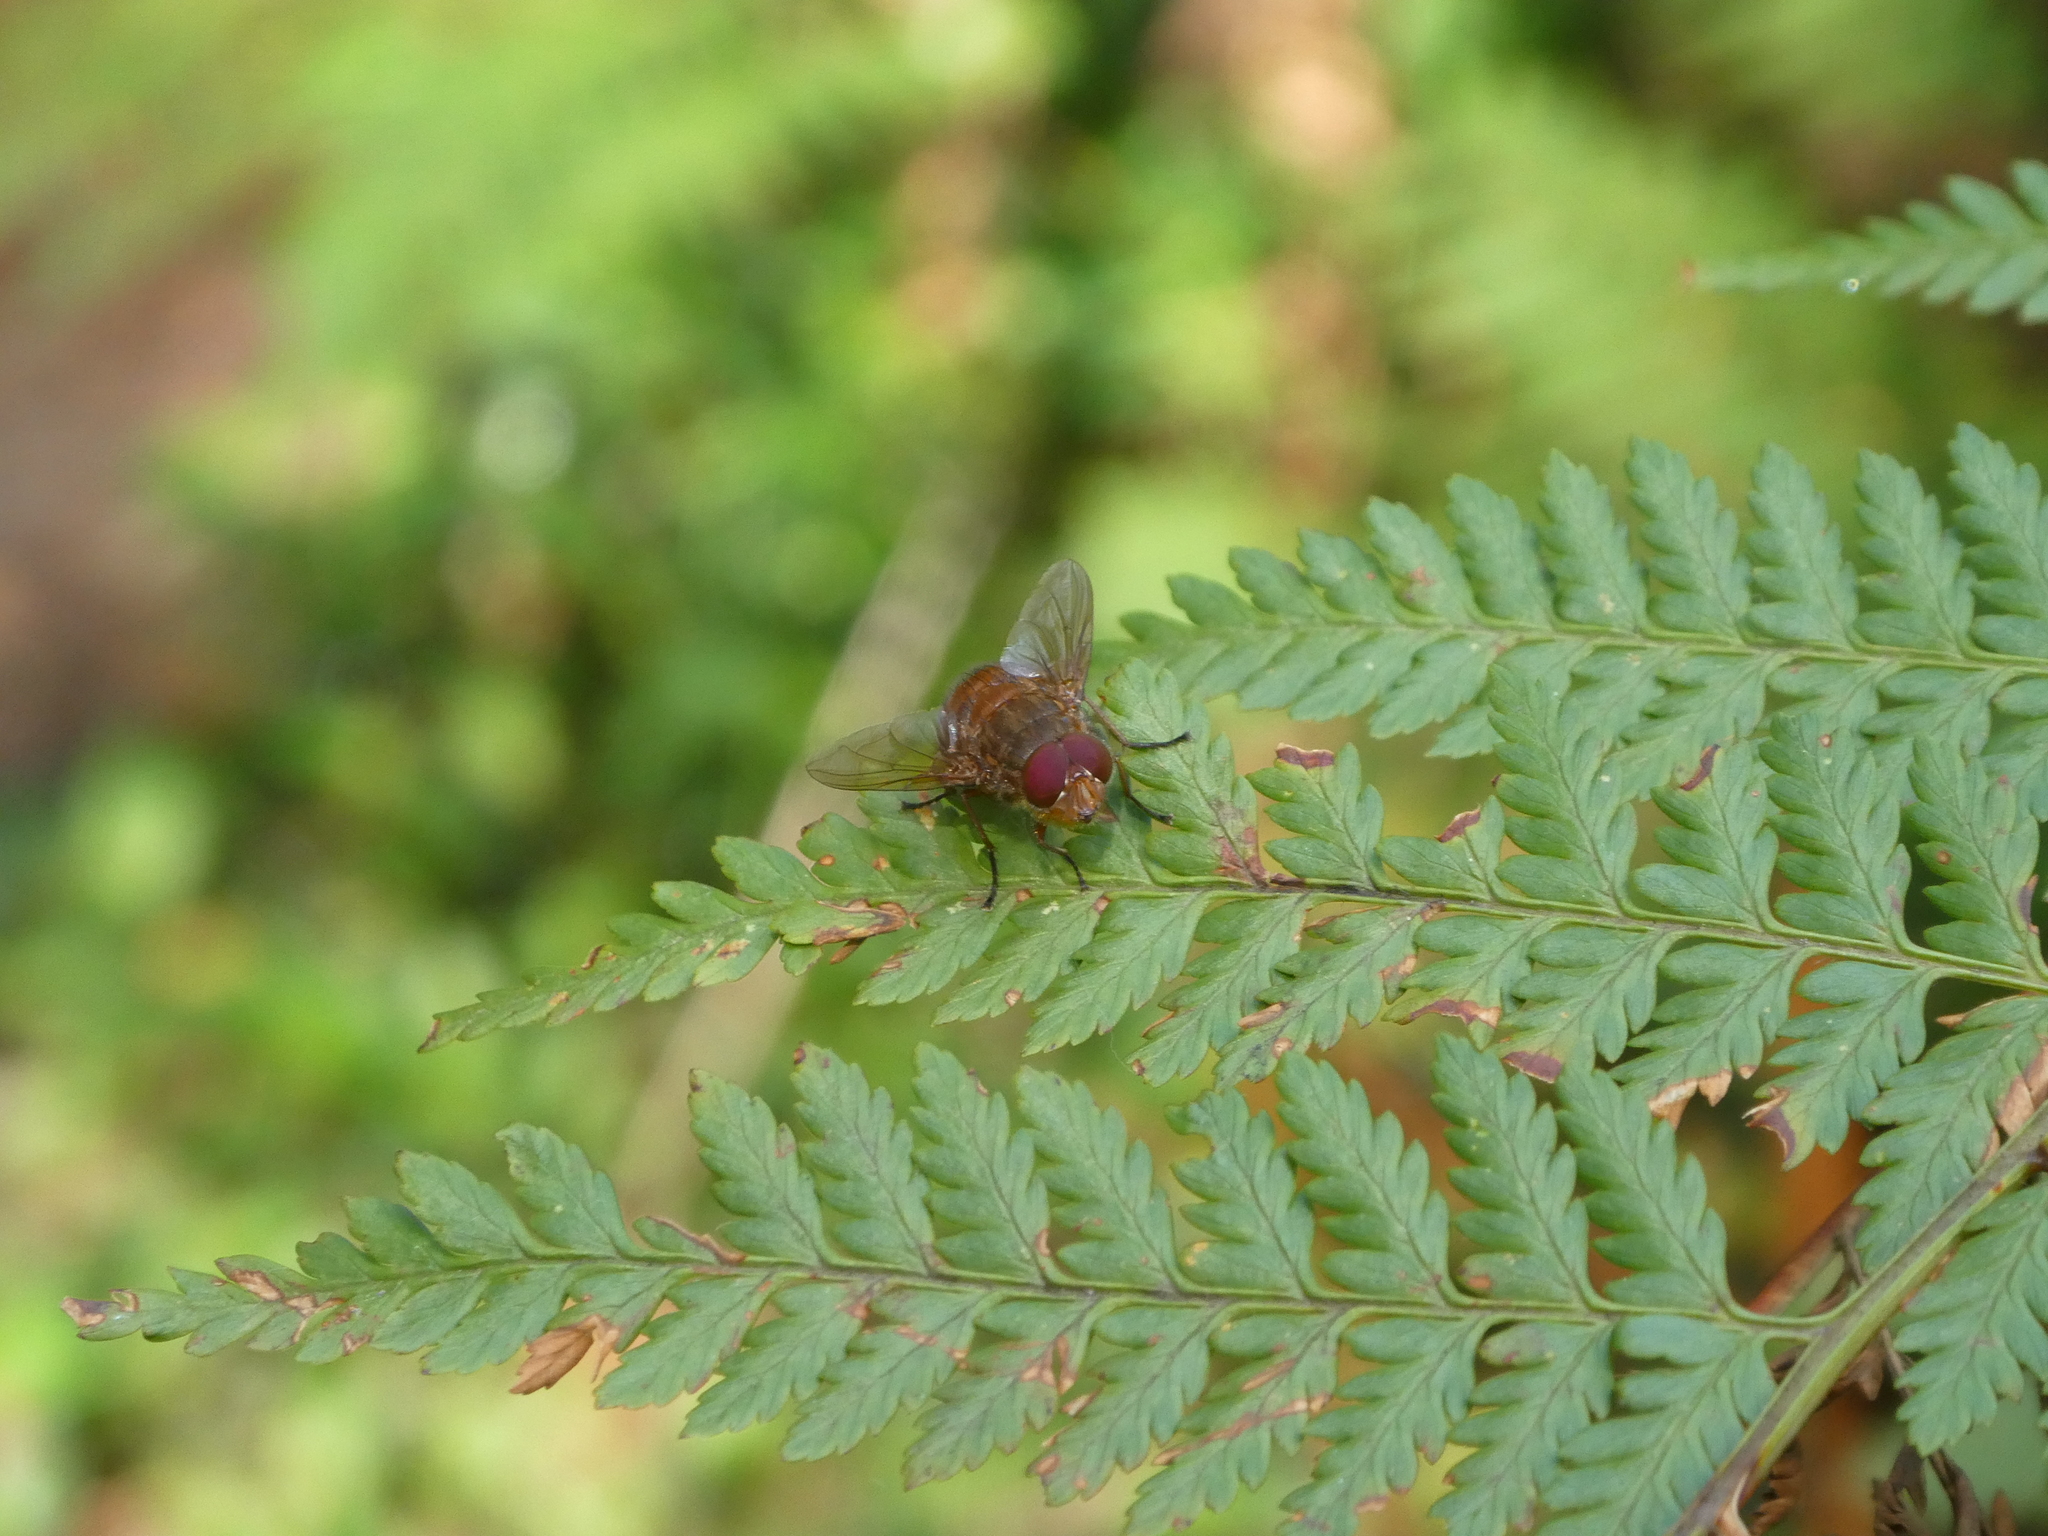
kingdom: Animalia
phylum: Arthropoda
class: Insecta
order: Diptera
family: Calliphoridae
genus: Calliphora
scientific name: Calliphora ochracea
